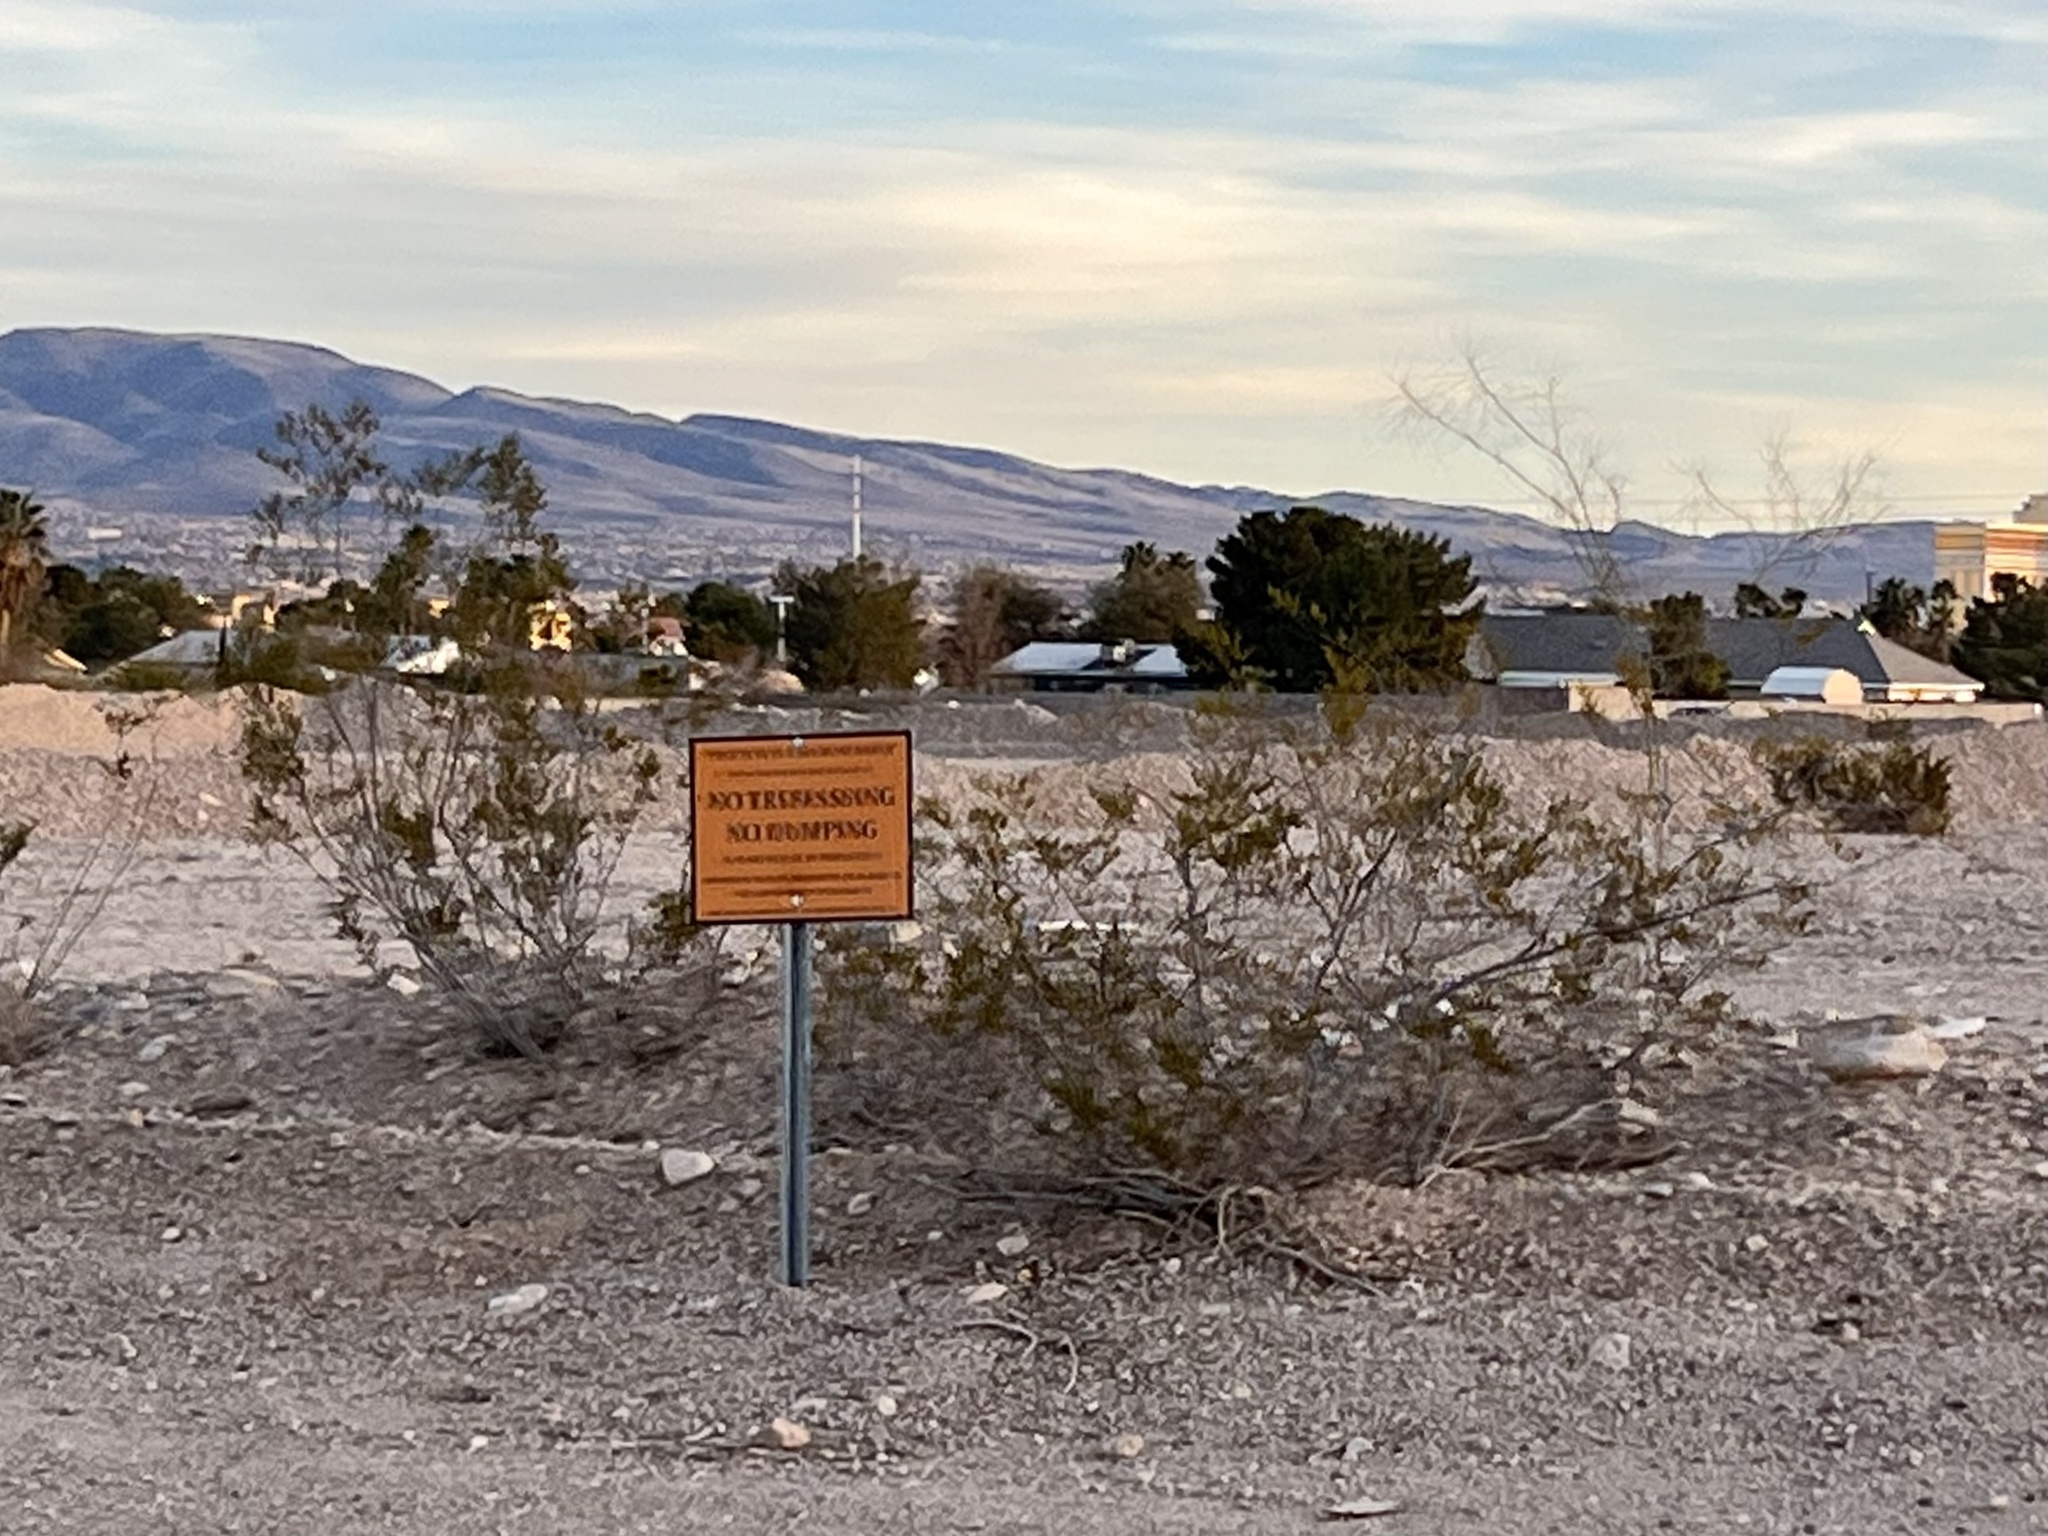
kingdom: Plantae
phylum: Tracheophyta
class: Magnoliopsida
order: Zygophyllales
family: Zygophyllaceae
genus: Larrea
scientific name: Larrea tridentata
